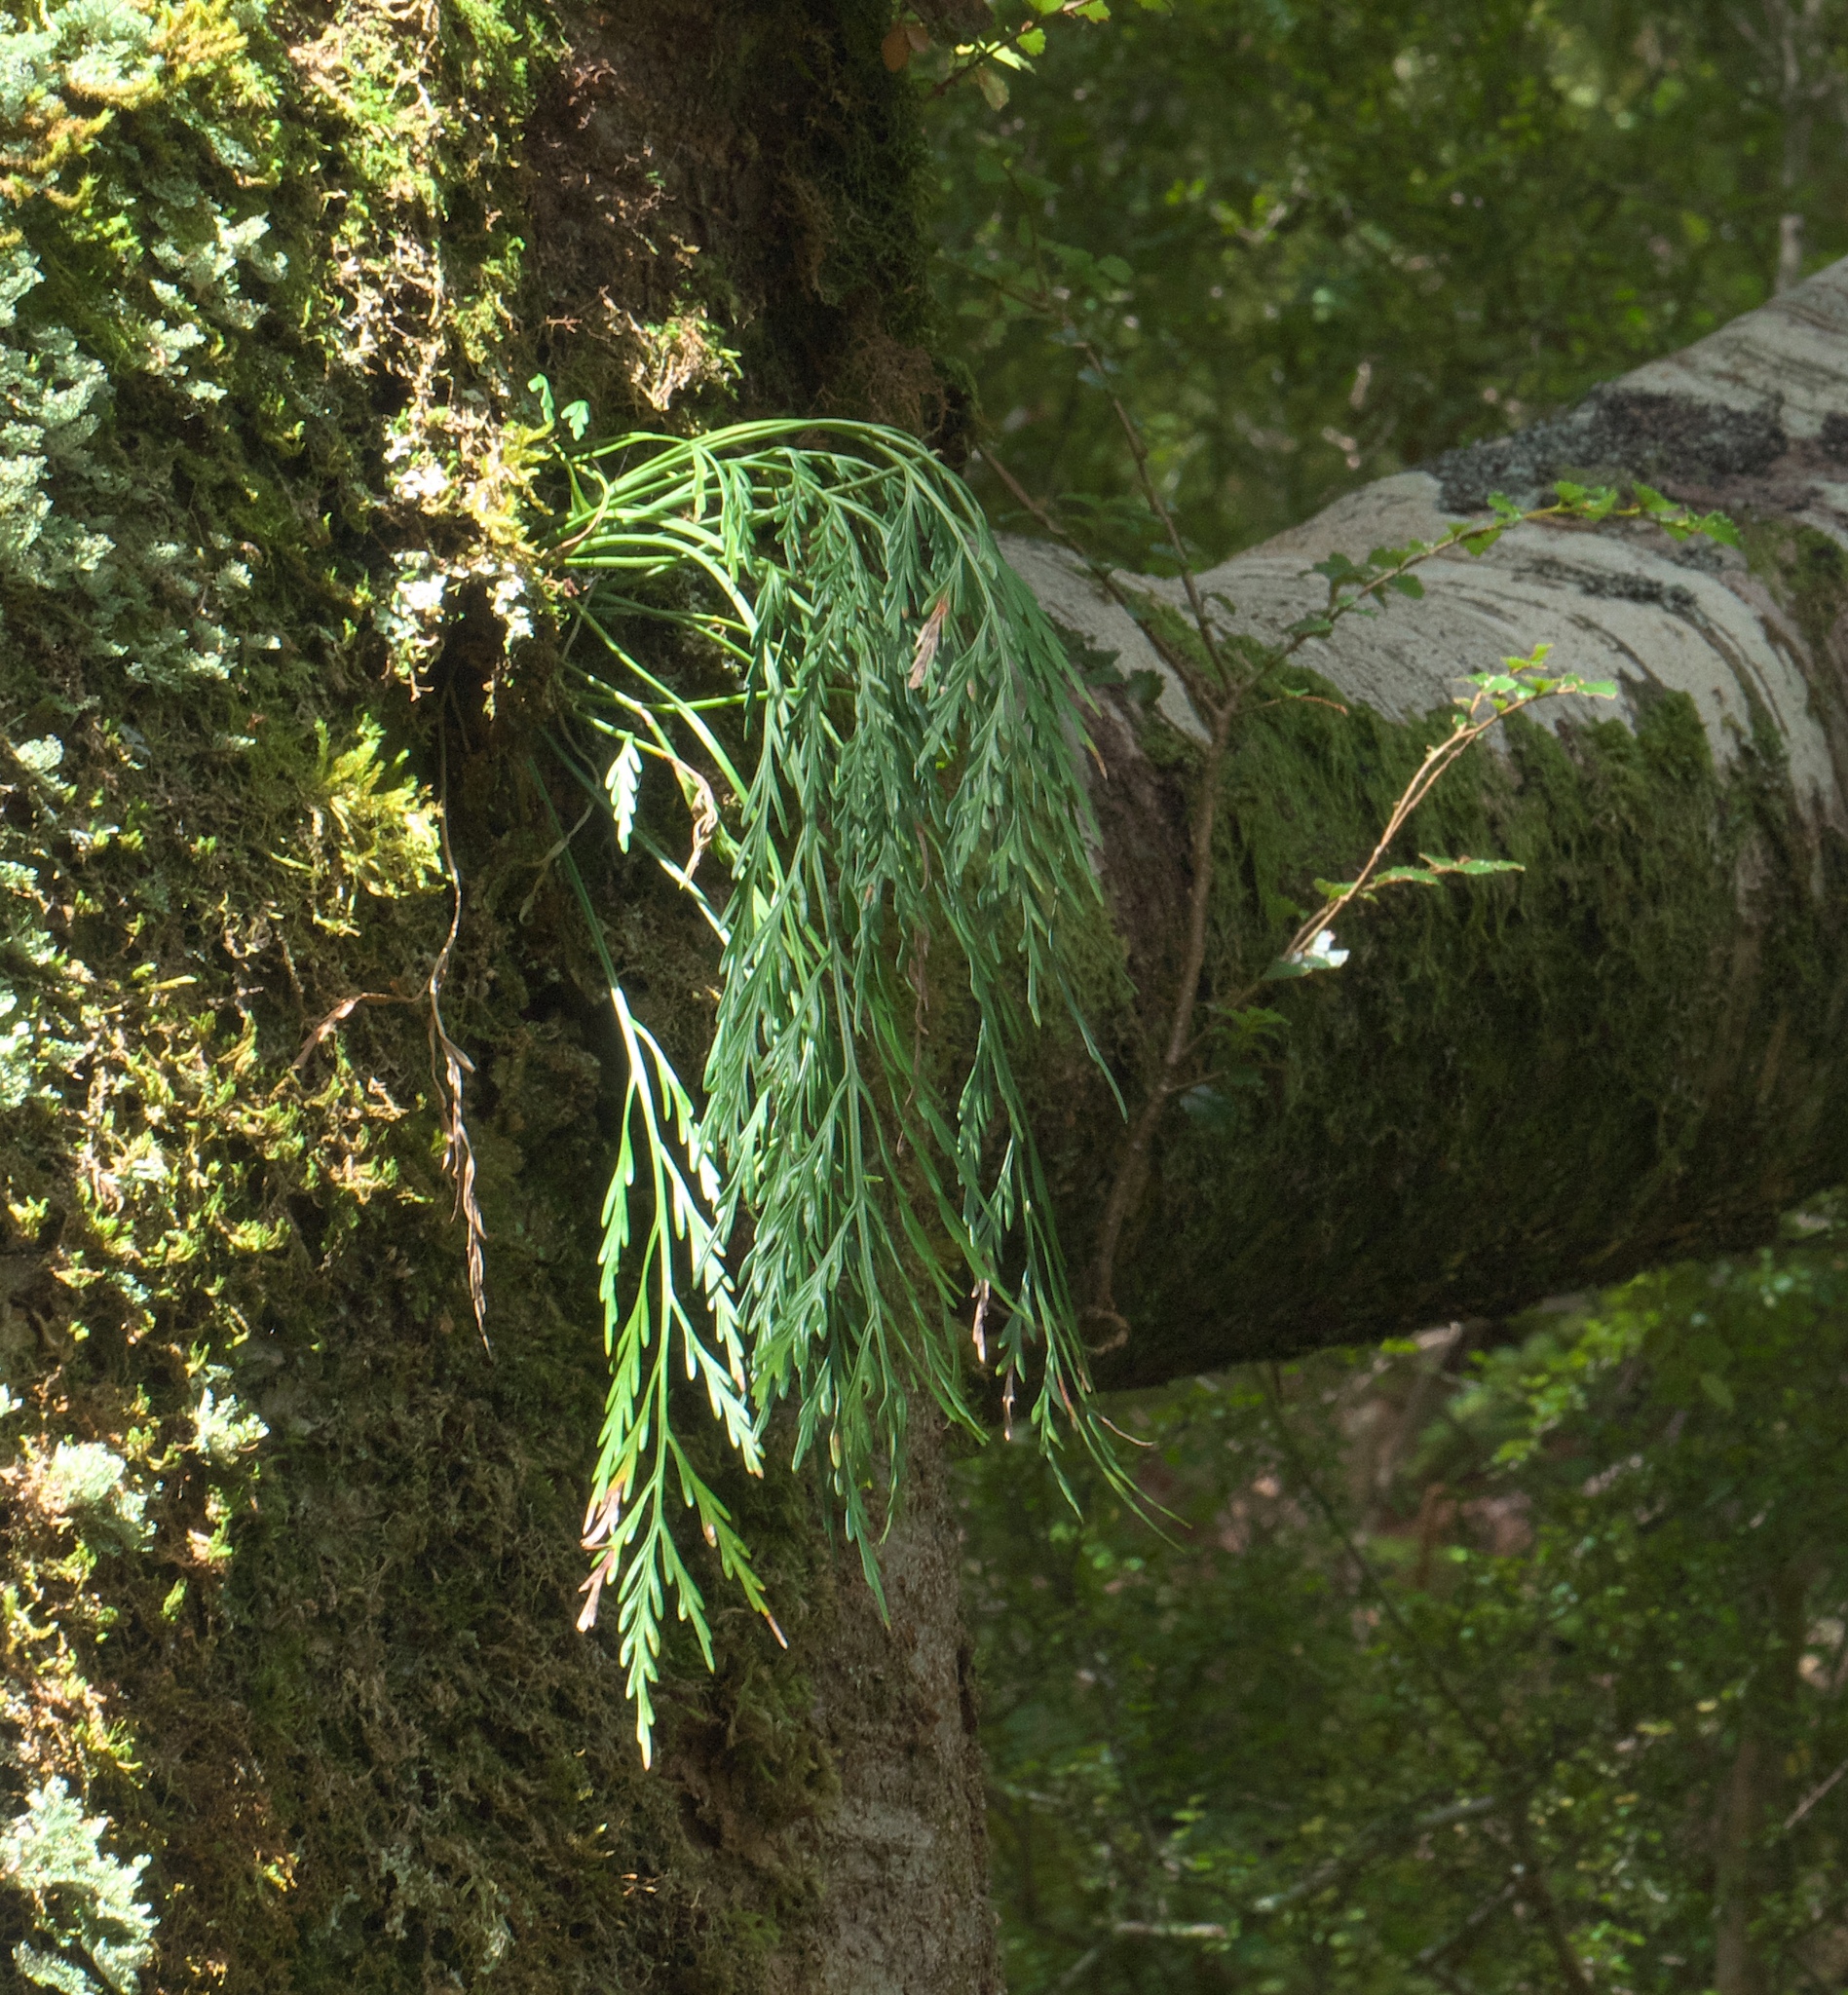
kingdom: Plantae
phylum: Tracheophyta
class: Polypodiopsida
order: Polypodiales
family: Aspleniaceae
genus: Asplenium
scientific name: Asplenium flaccidum
